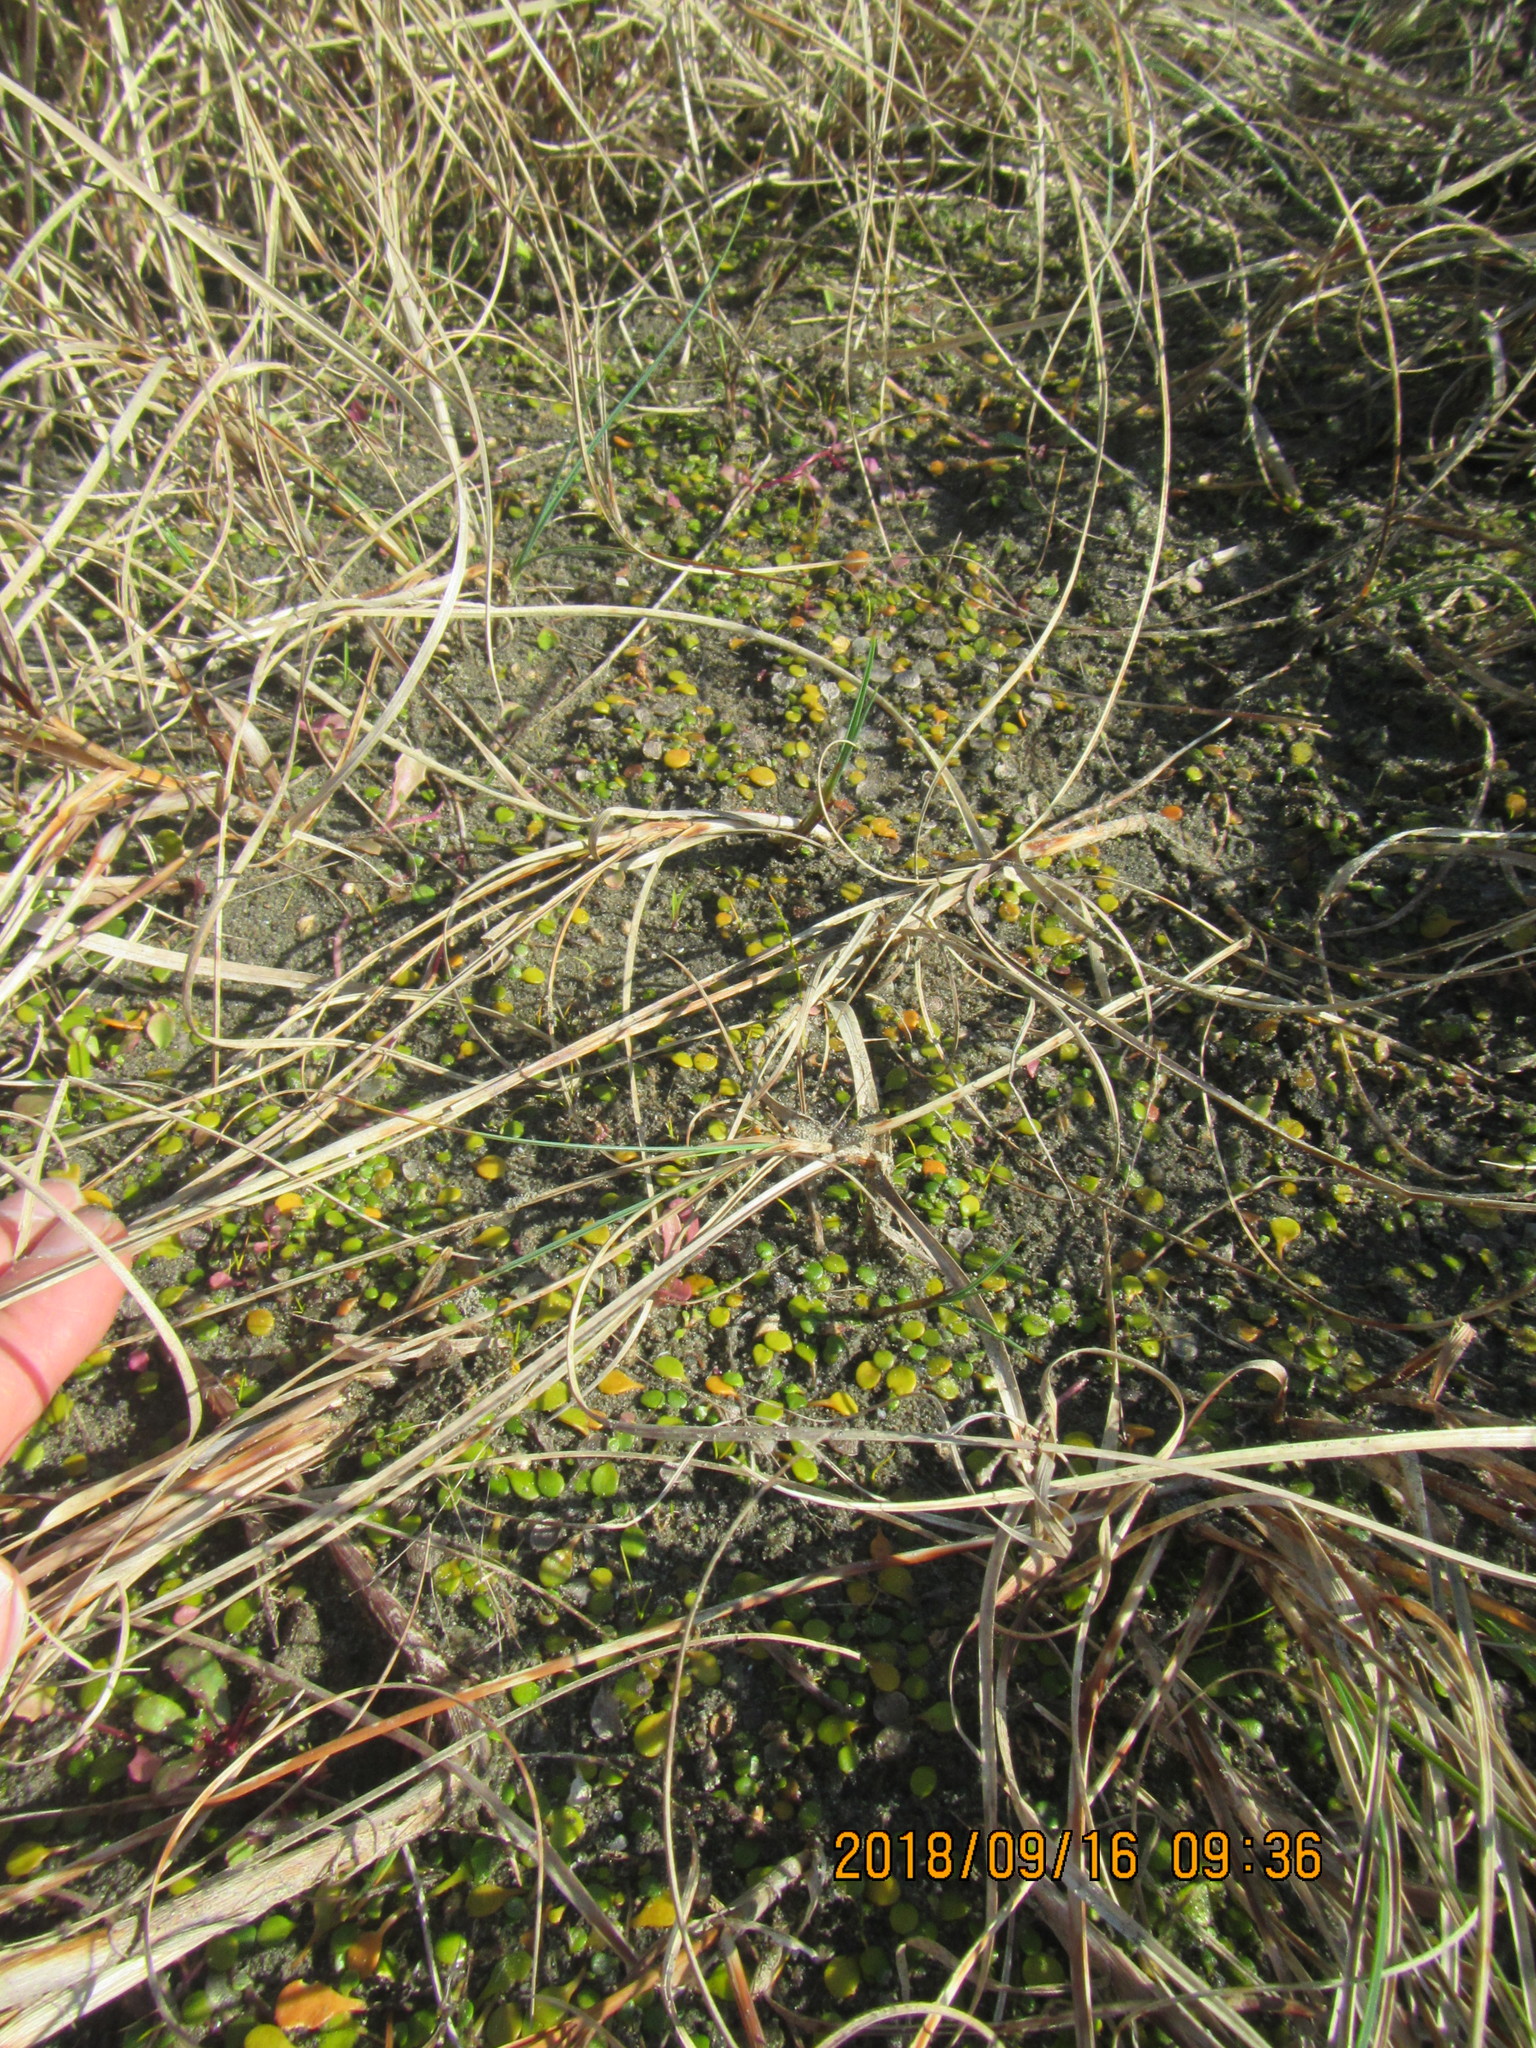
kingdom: Plantae
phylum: Tracheophyta
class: Magnoliopsida
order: Asterales
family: Goodeniaceae
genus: Goodenia
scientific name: Goodenia heenanii
